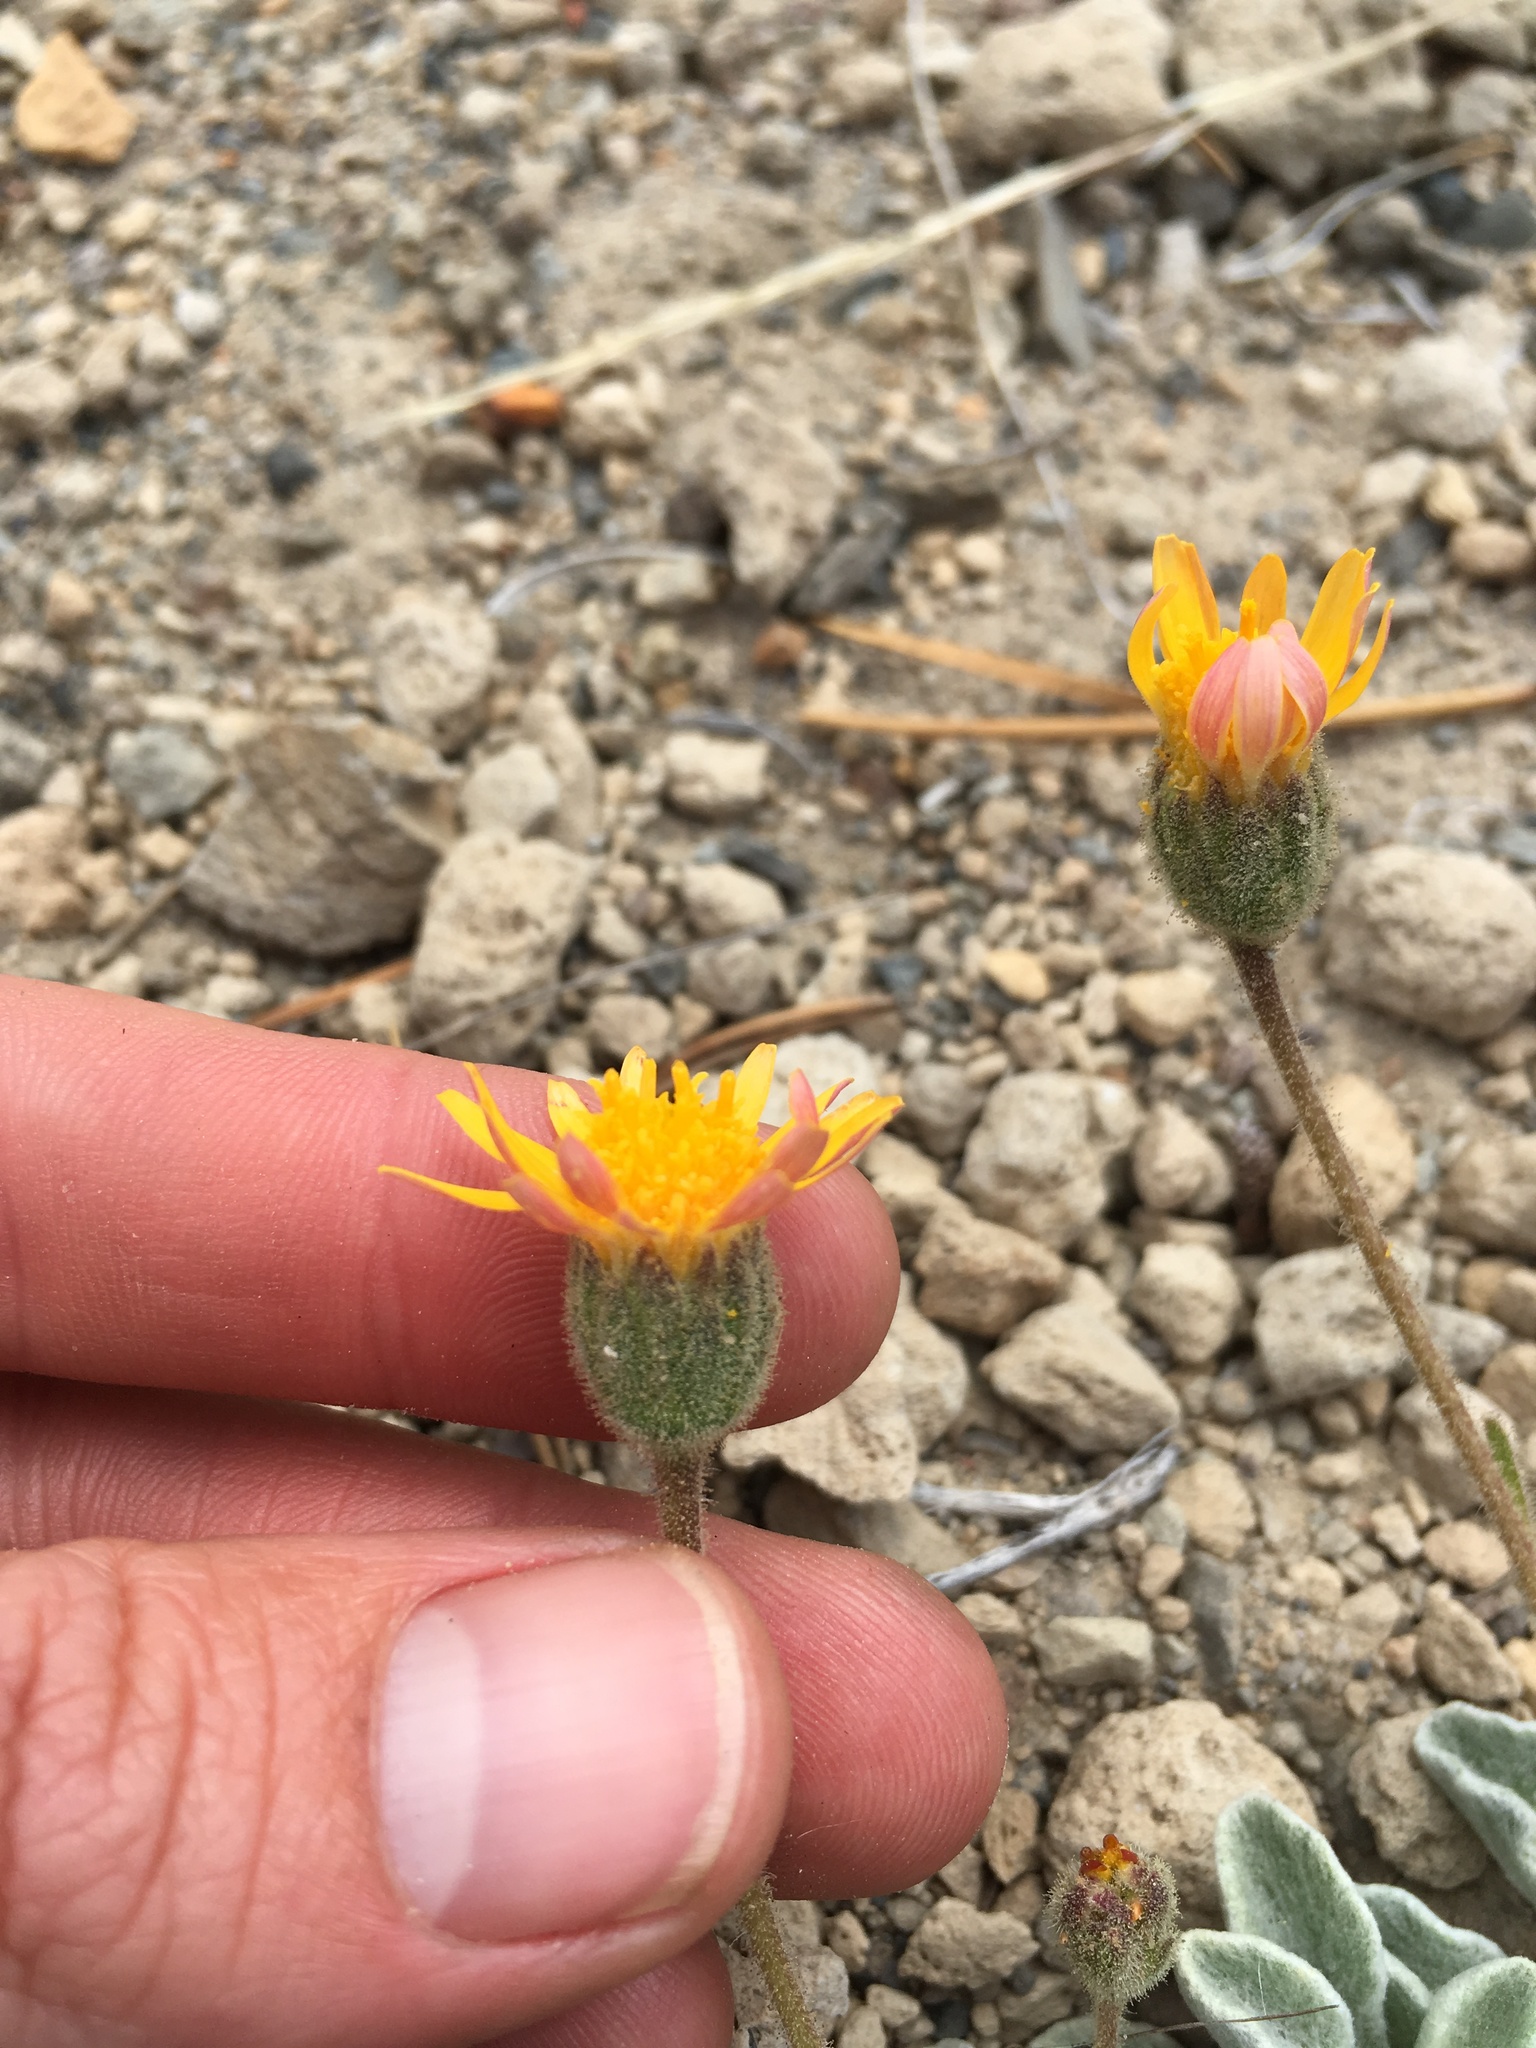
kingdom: Plantae
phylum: Tracheophyta
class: Magnoliopsida
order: Asterales
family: Asteraceae
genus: Hulsea
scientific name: Hulsea vestita
